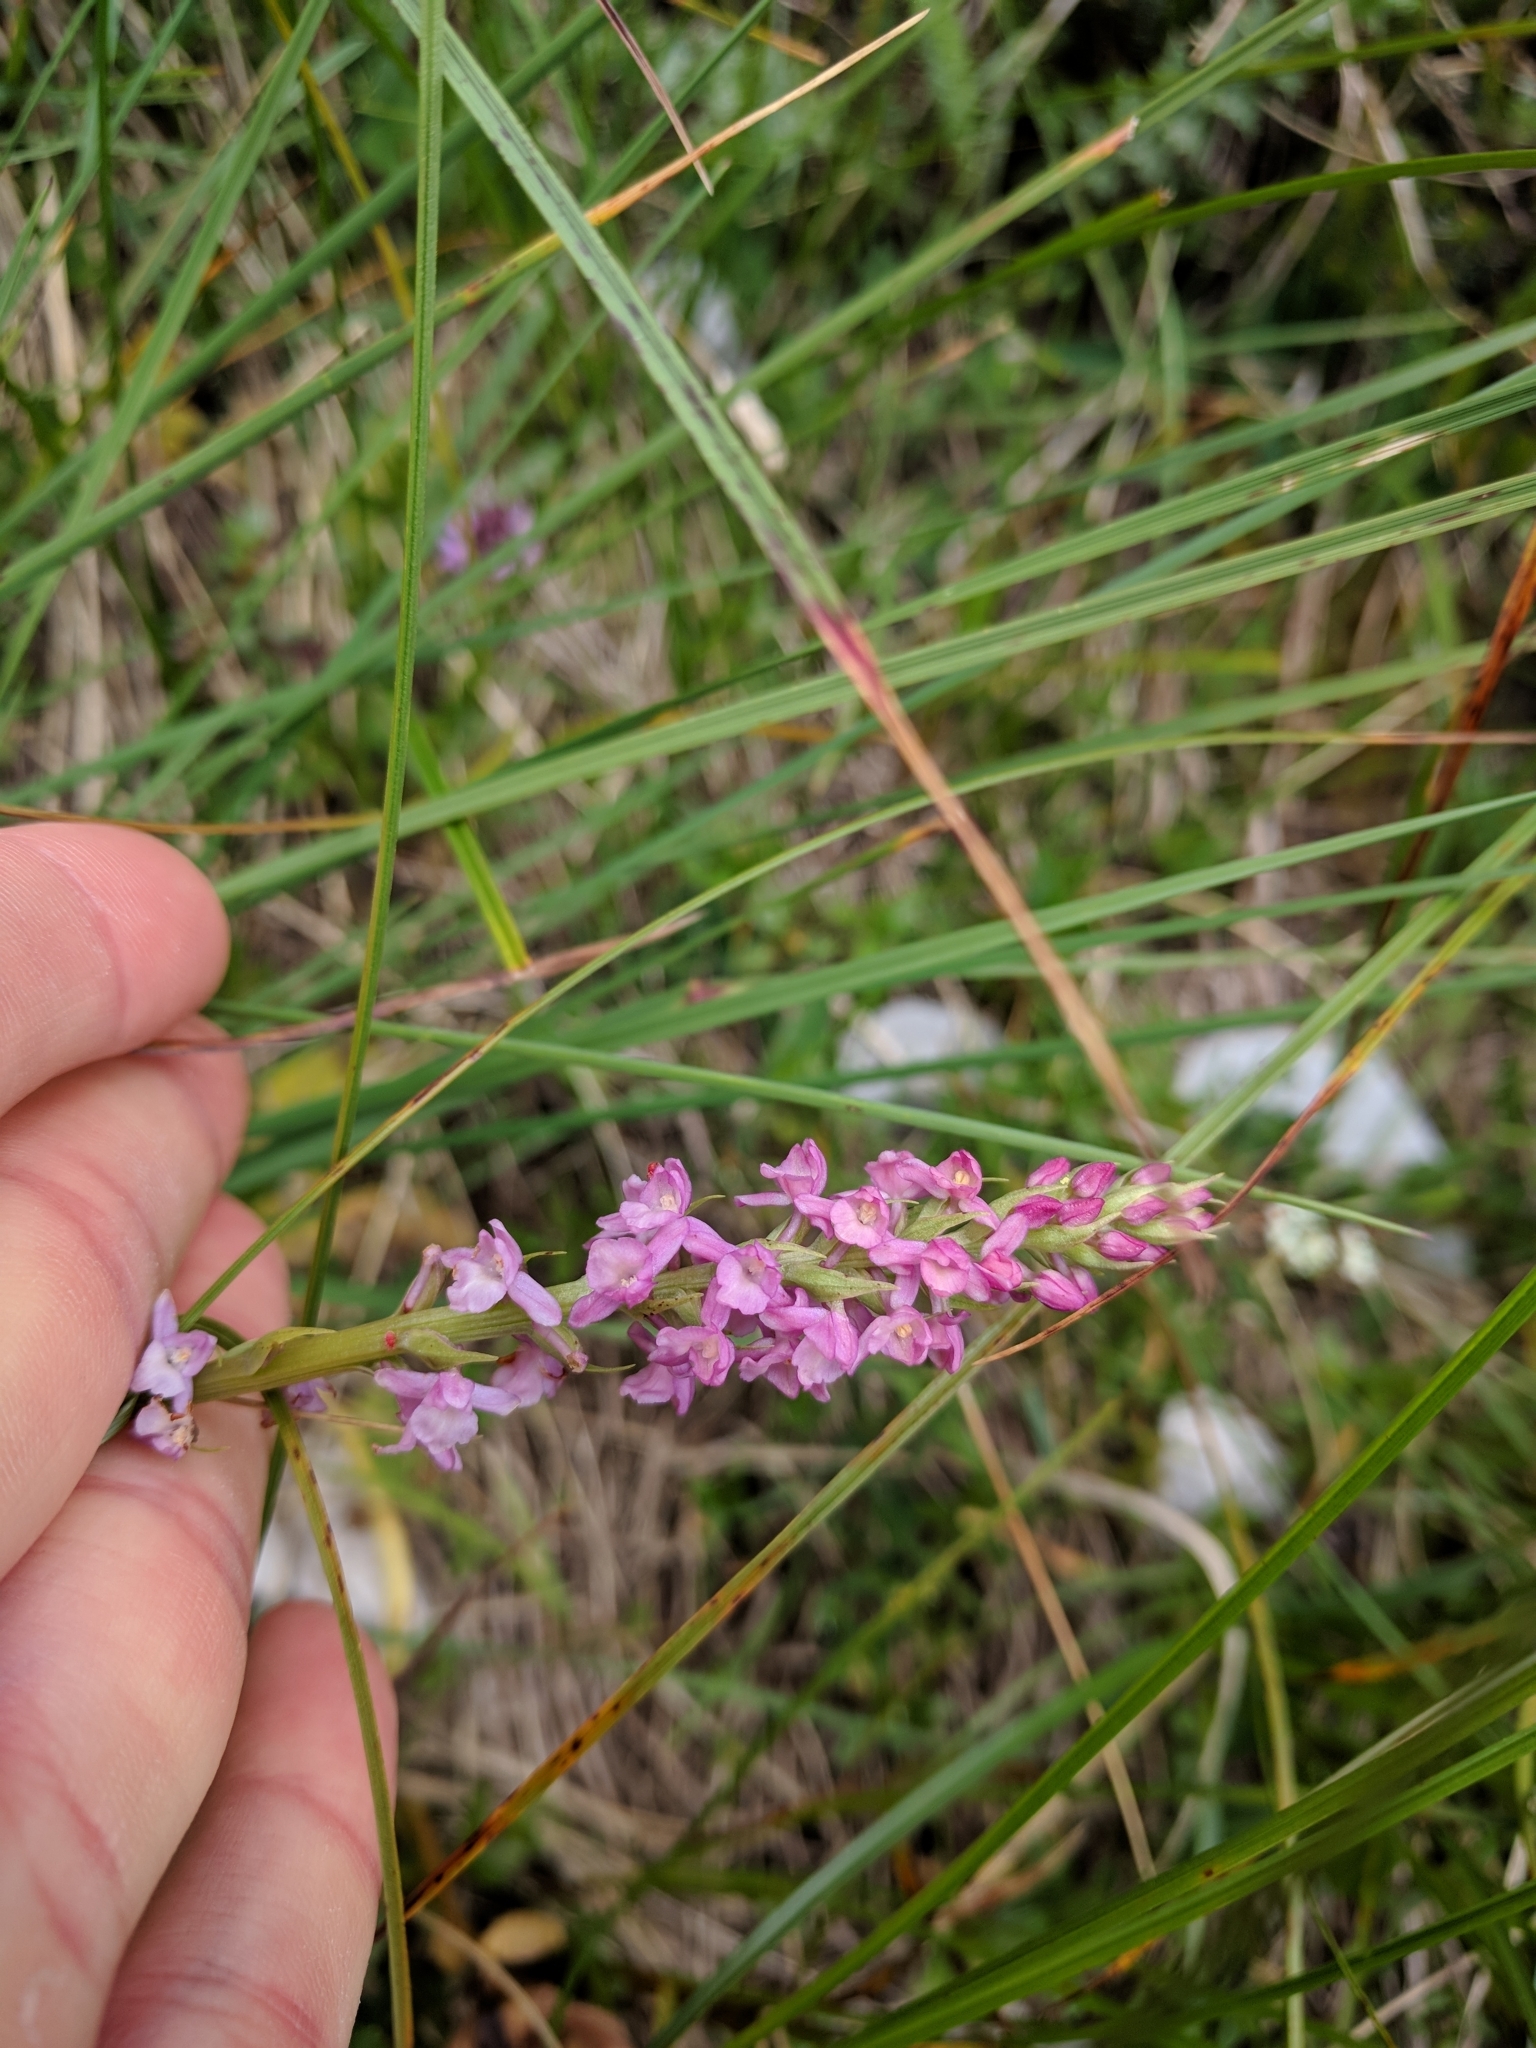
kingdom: Plantae
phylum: Tracheophyta
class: Liliopsida
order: Asparagales
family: Orchidaceae
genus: Gymnadenia
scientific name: Gymnadenia conopsea
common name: Fragrant orchid
